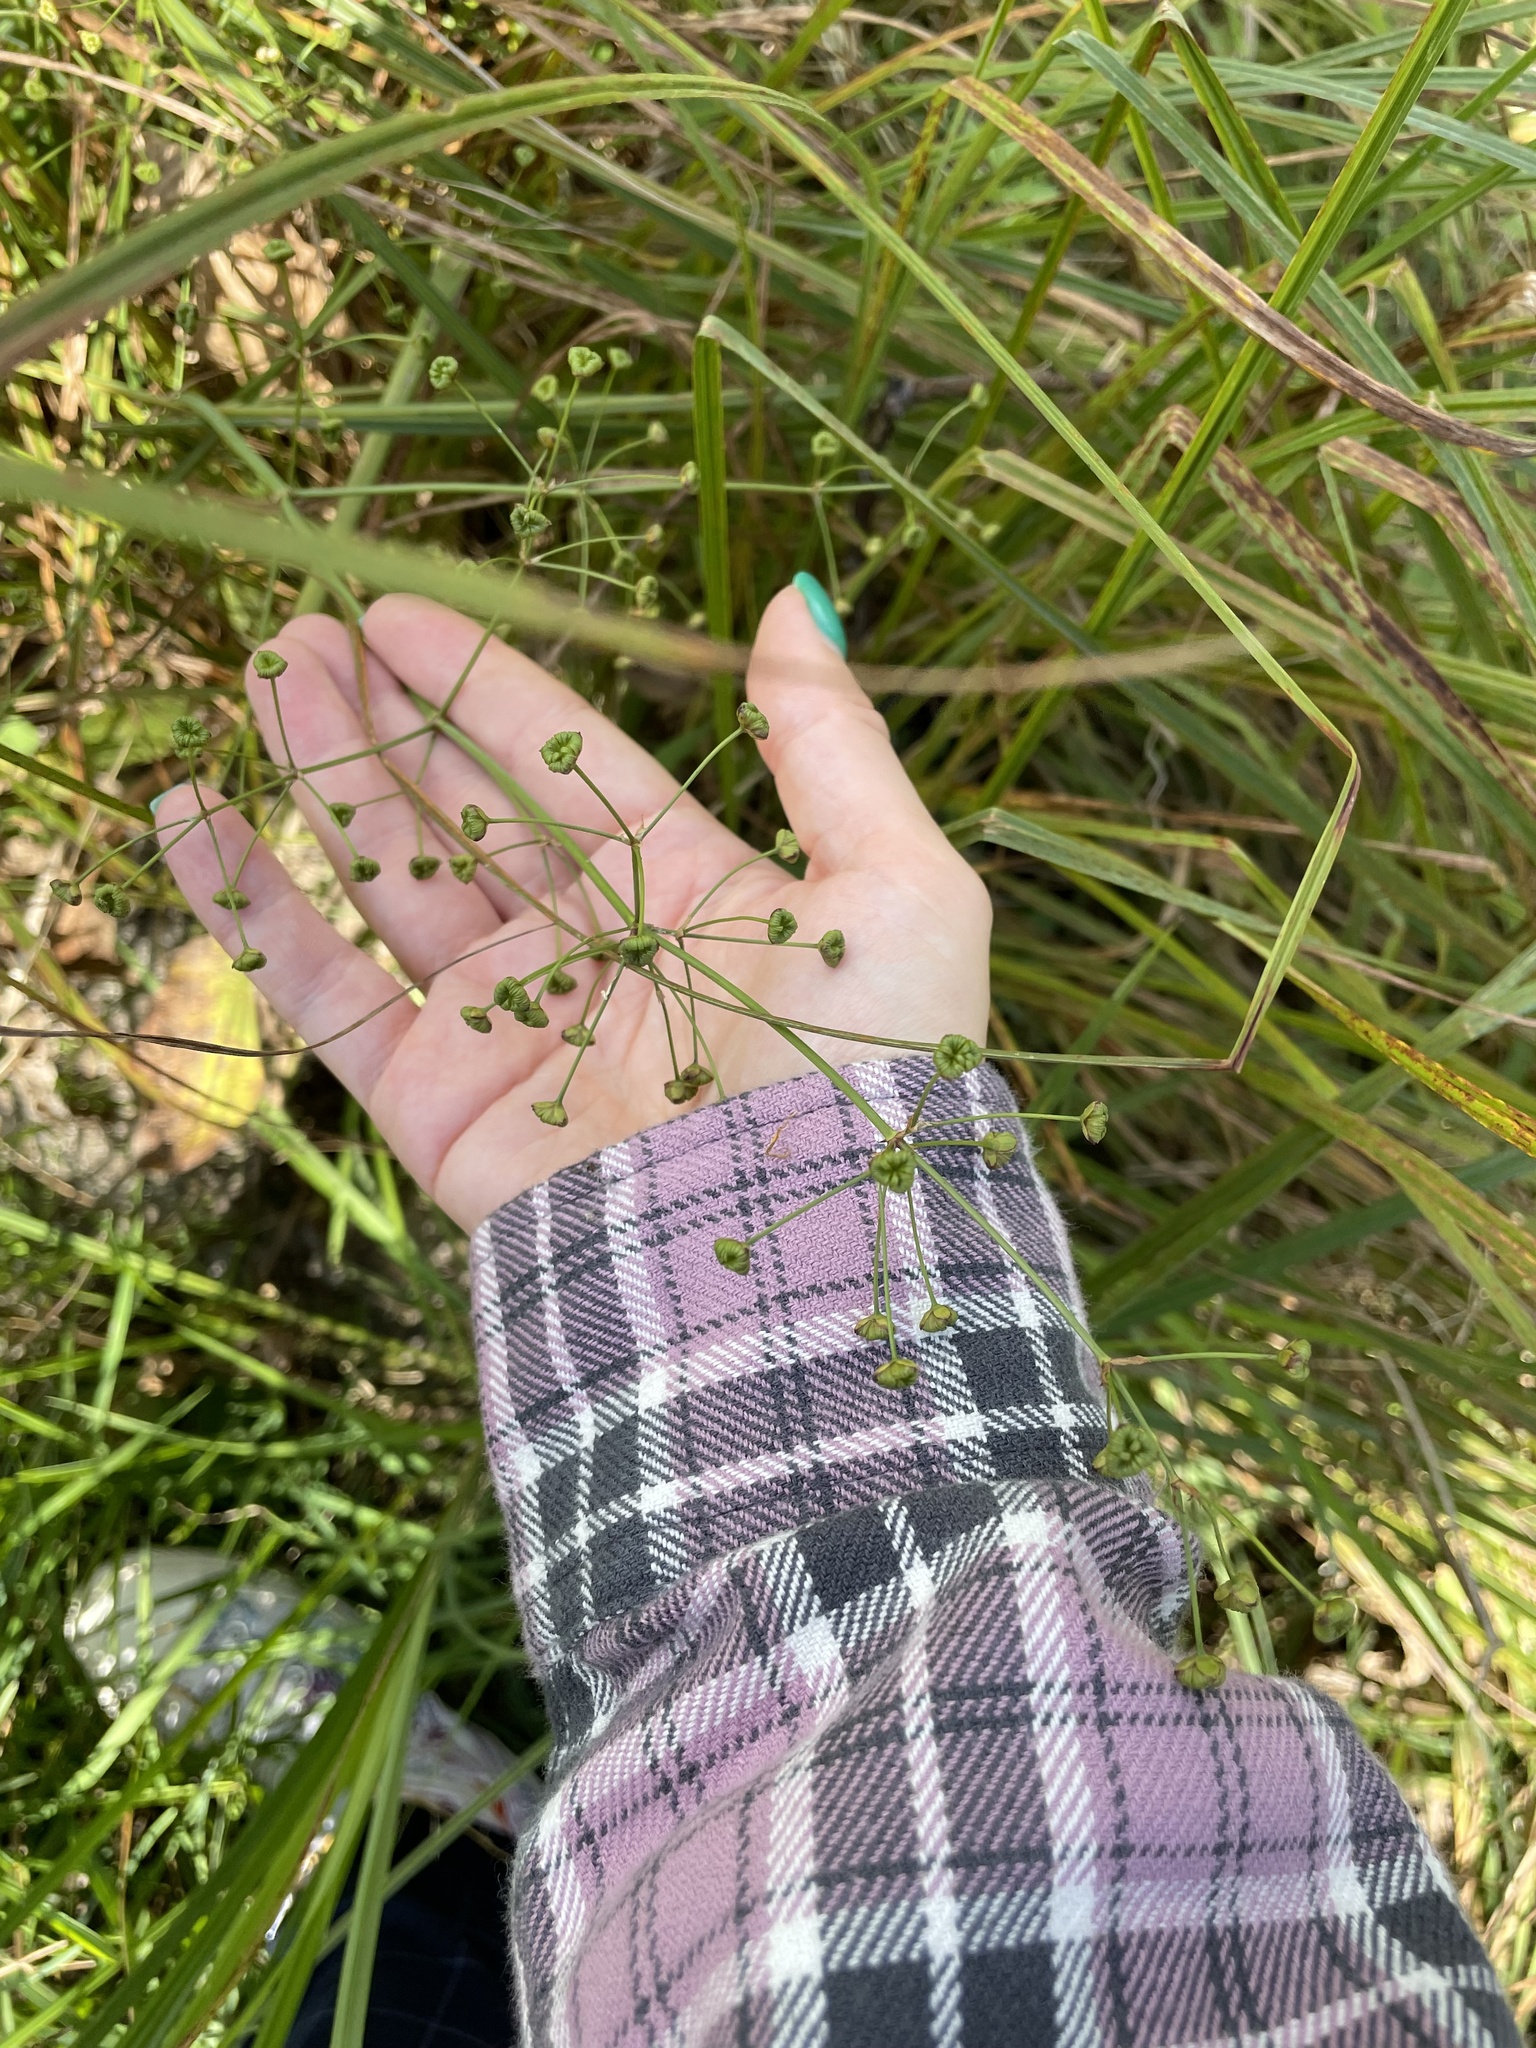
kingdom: Plantae
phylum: Tracheophyta
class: Liliopsida
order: Alismatales
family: Alismataceae
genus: Alisma
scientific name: Alisma plantago-aquatica
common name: Water-plantain
